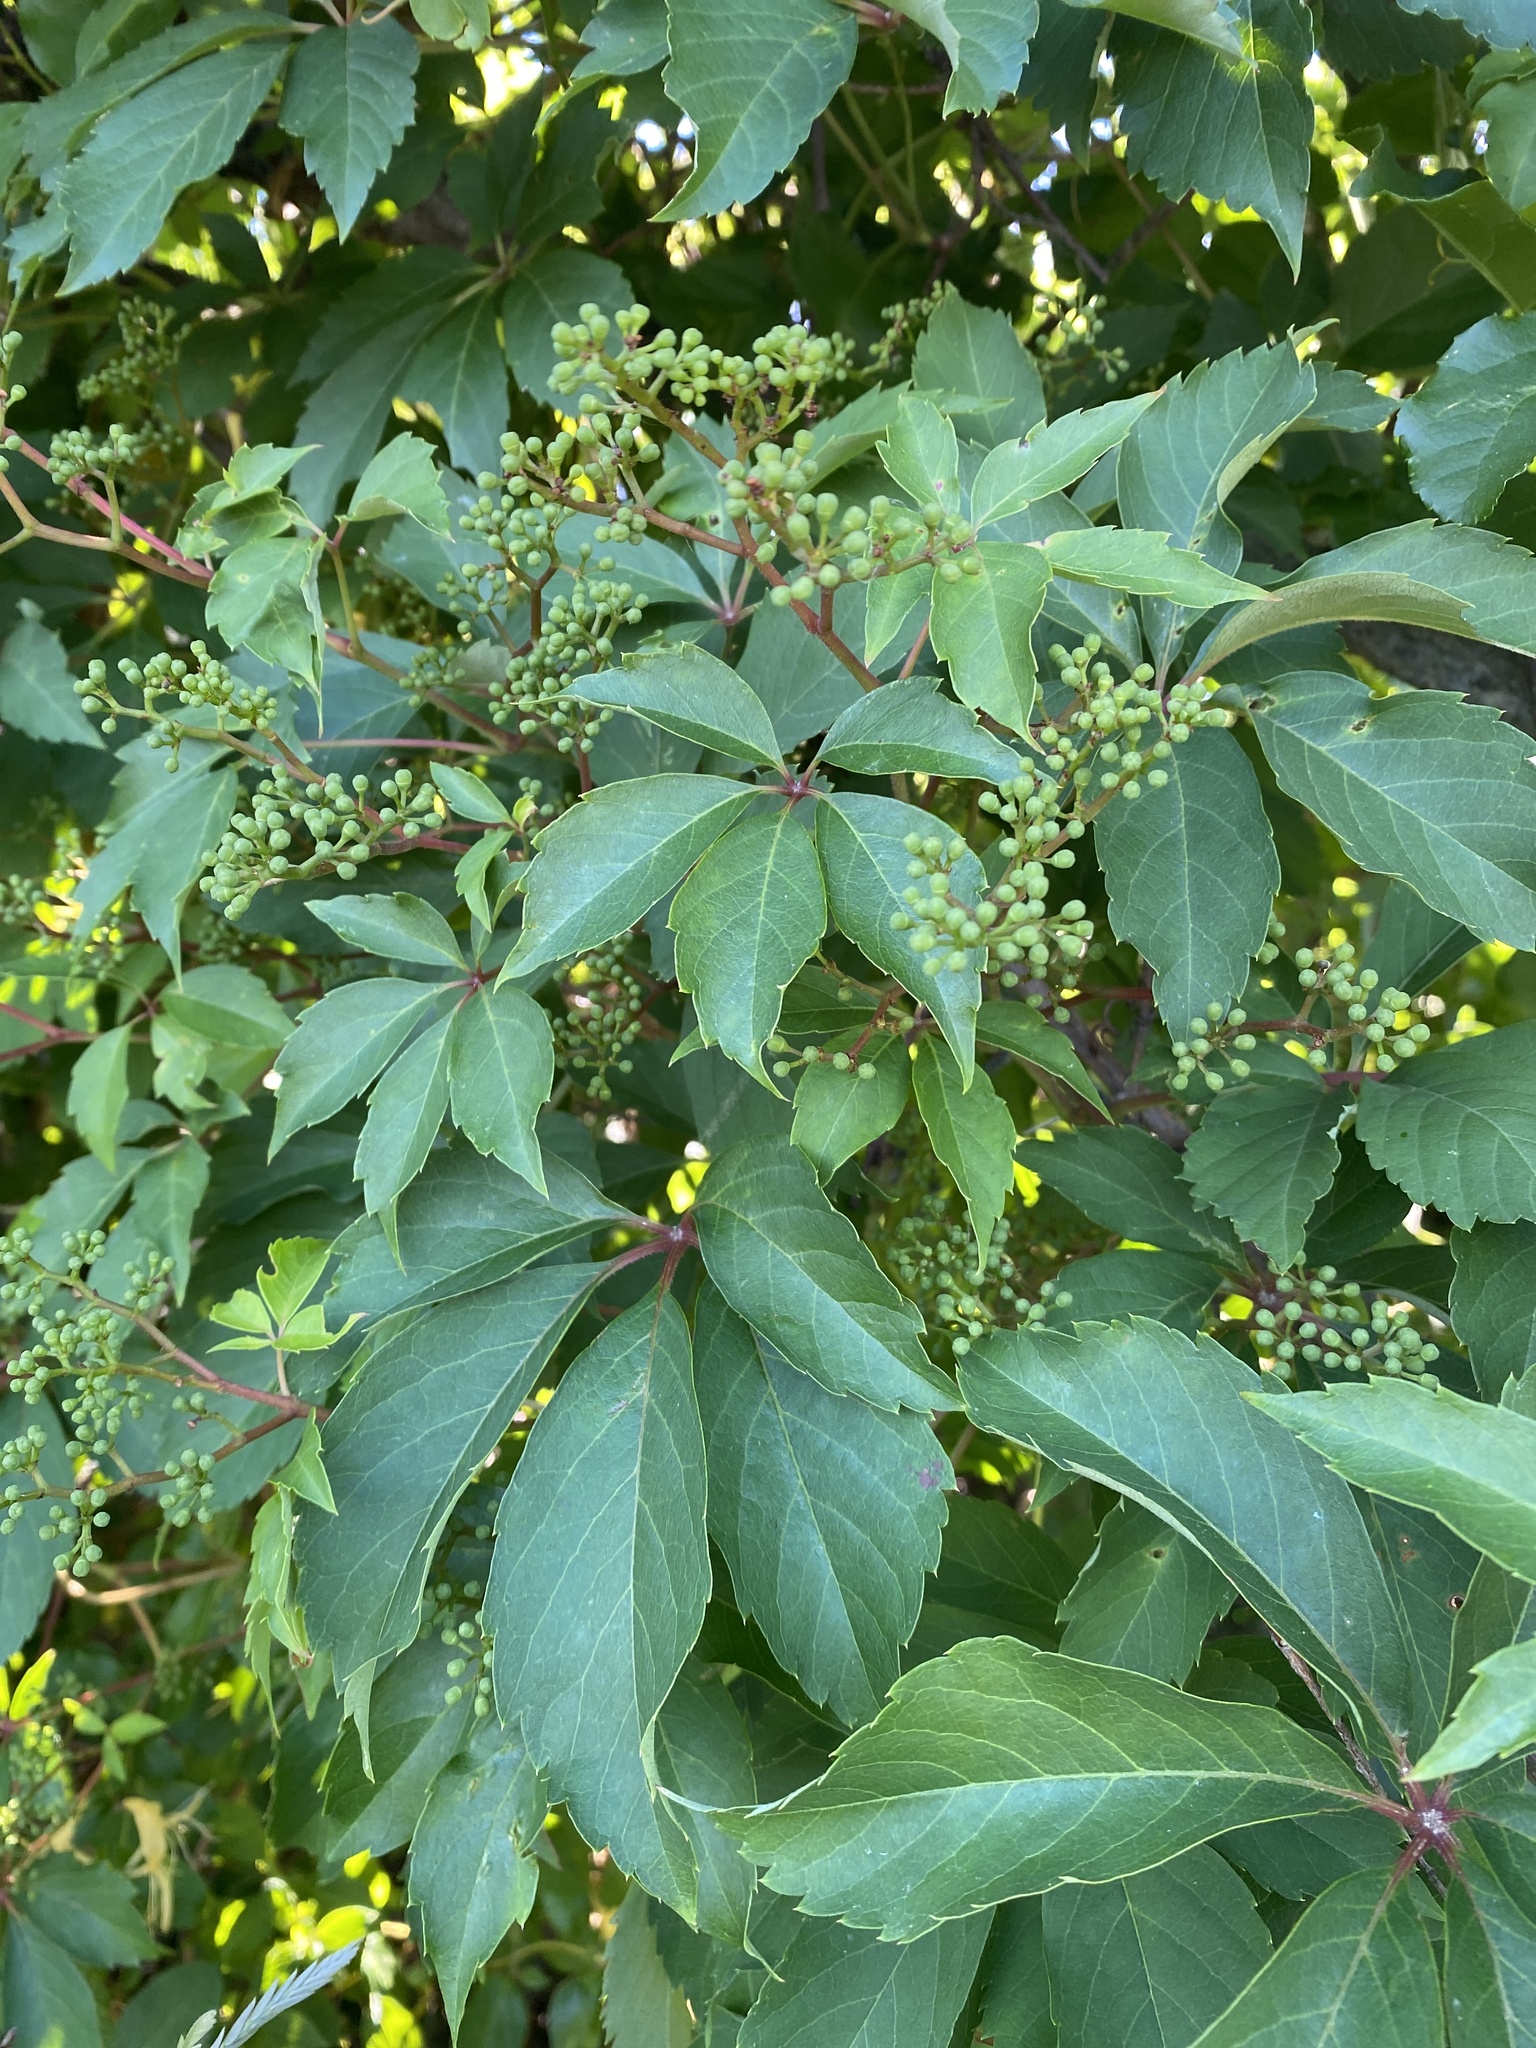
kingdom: Plantae
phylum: Tracheophyta
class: Magnoliopsida
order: Vitales
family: Vitaceae
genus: Parthenocissus
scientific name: Parthenocissus quinquefolia
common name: Virginia-creeper
